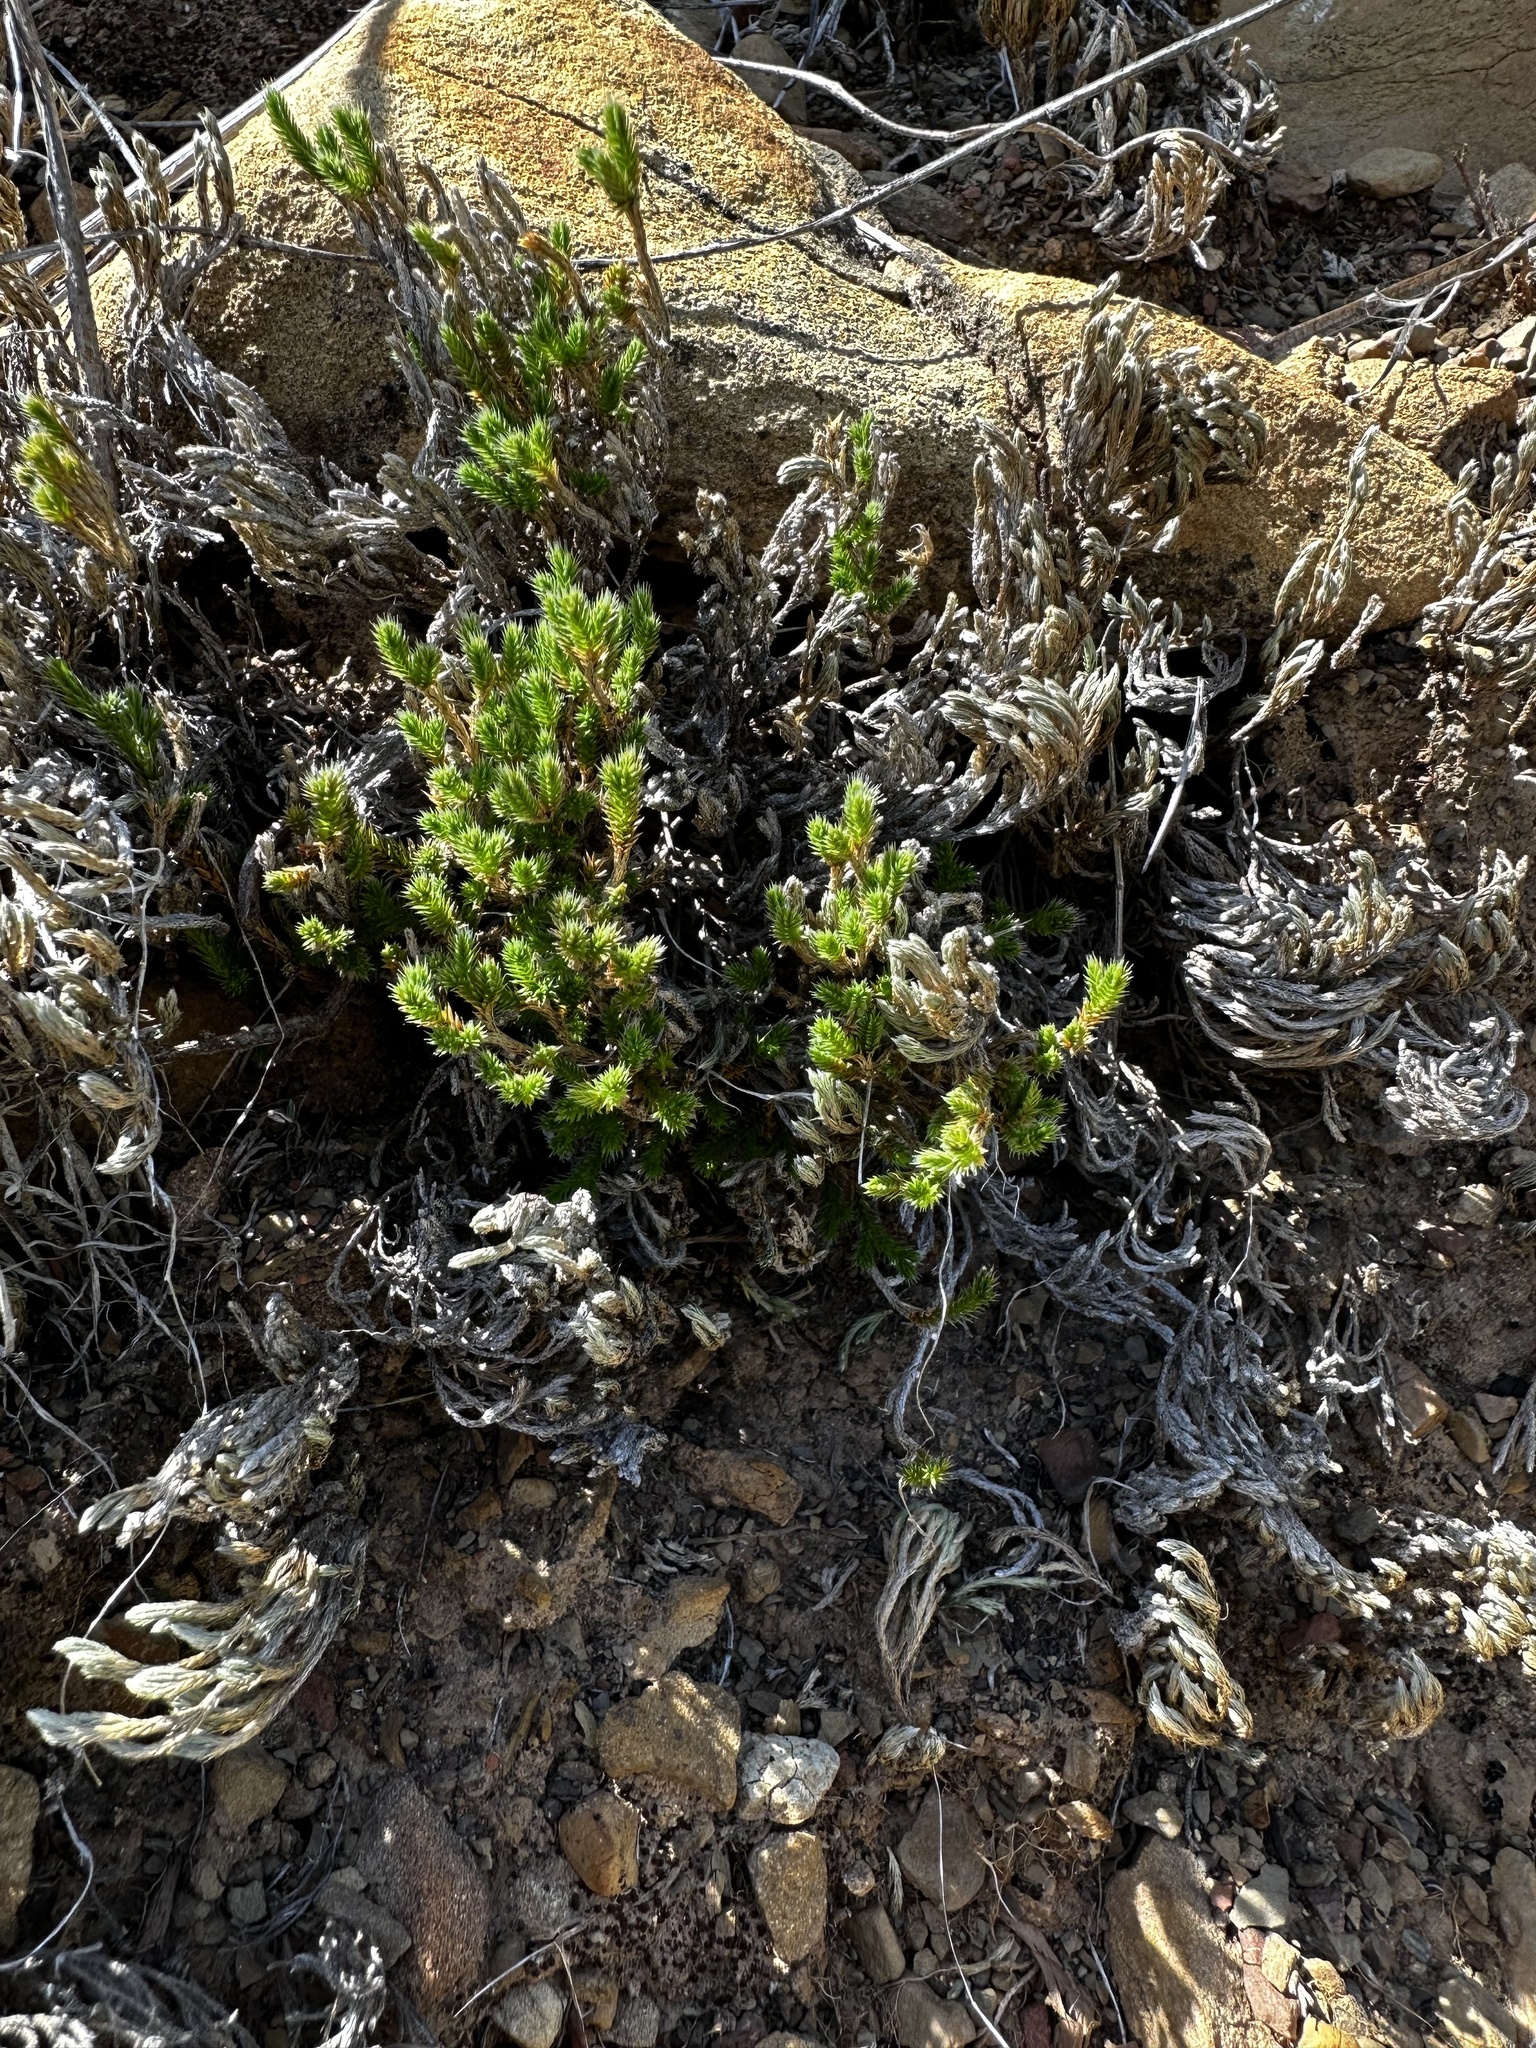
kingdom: Plantae
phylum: Tracheophyta
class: Lycopodiopsida
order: Selaginellales
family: Selaginellaceae
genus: Selaginella
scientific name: Selaginella bigelovii
